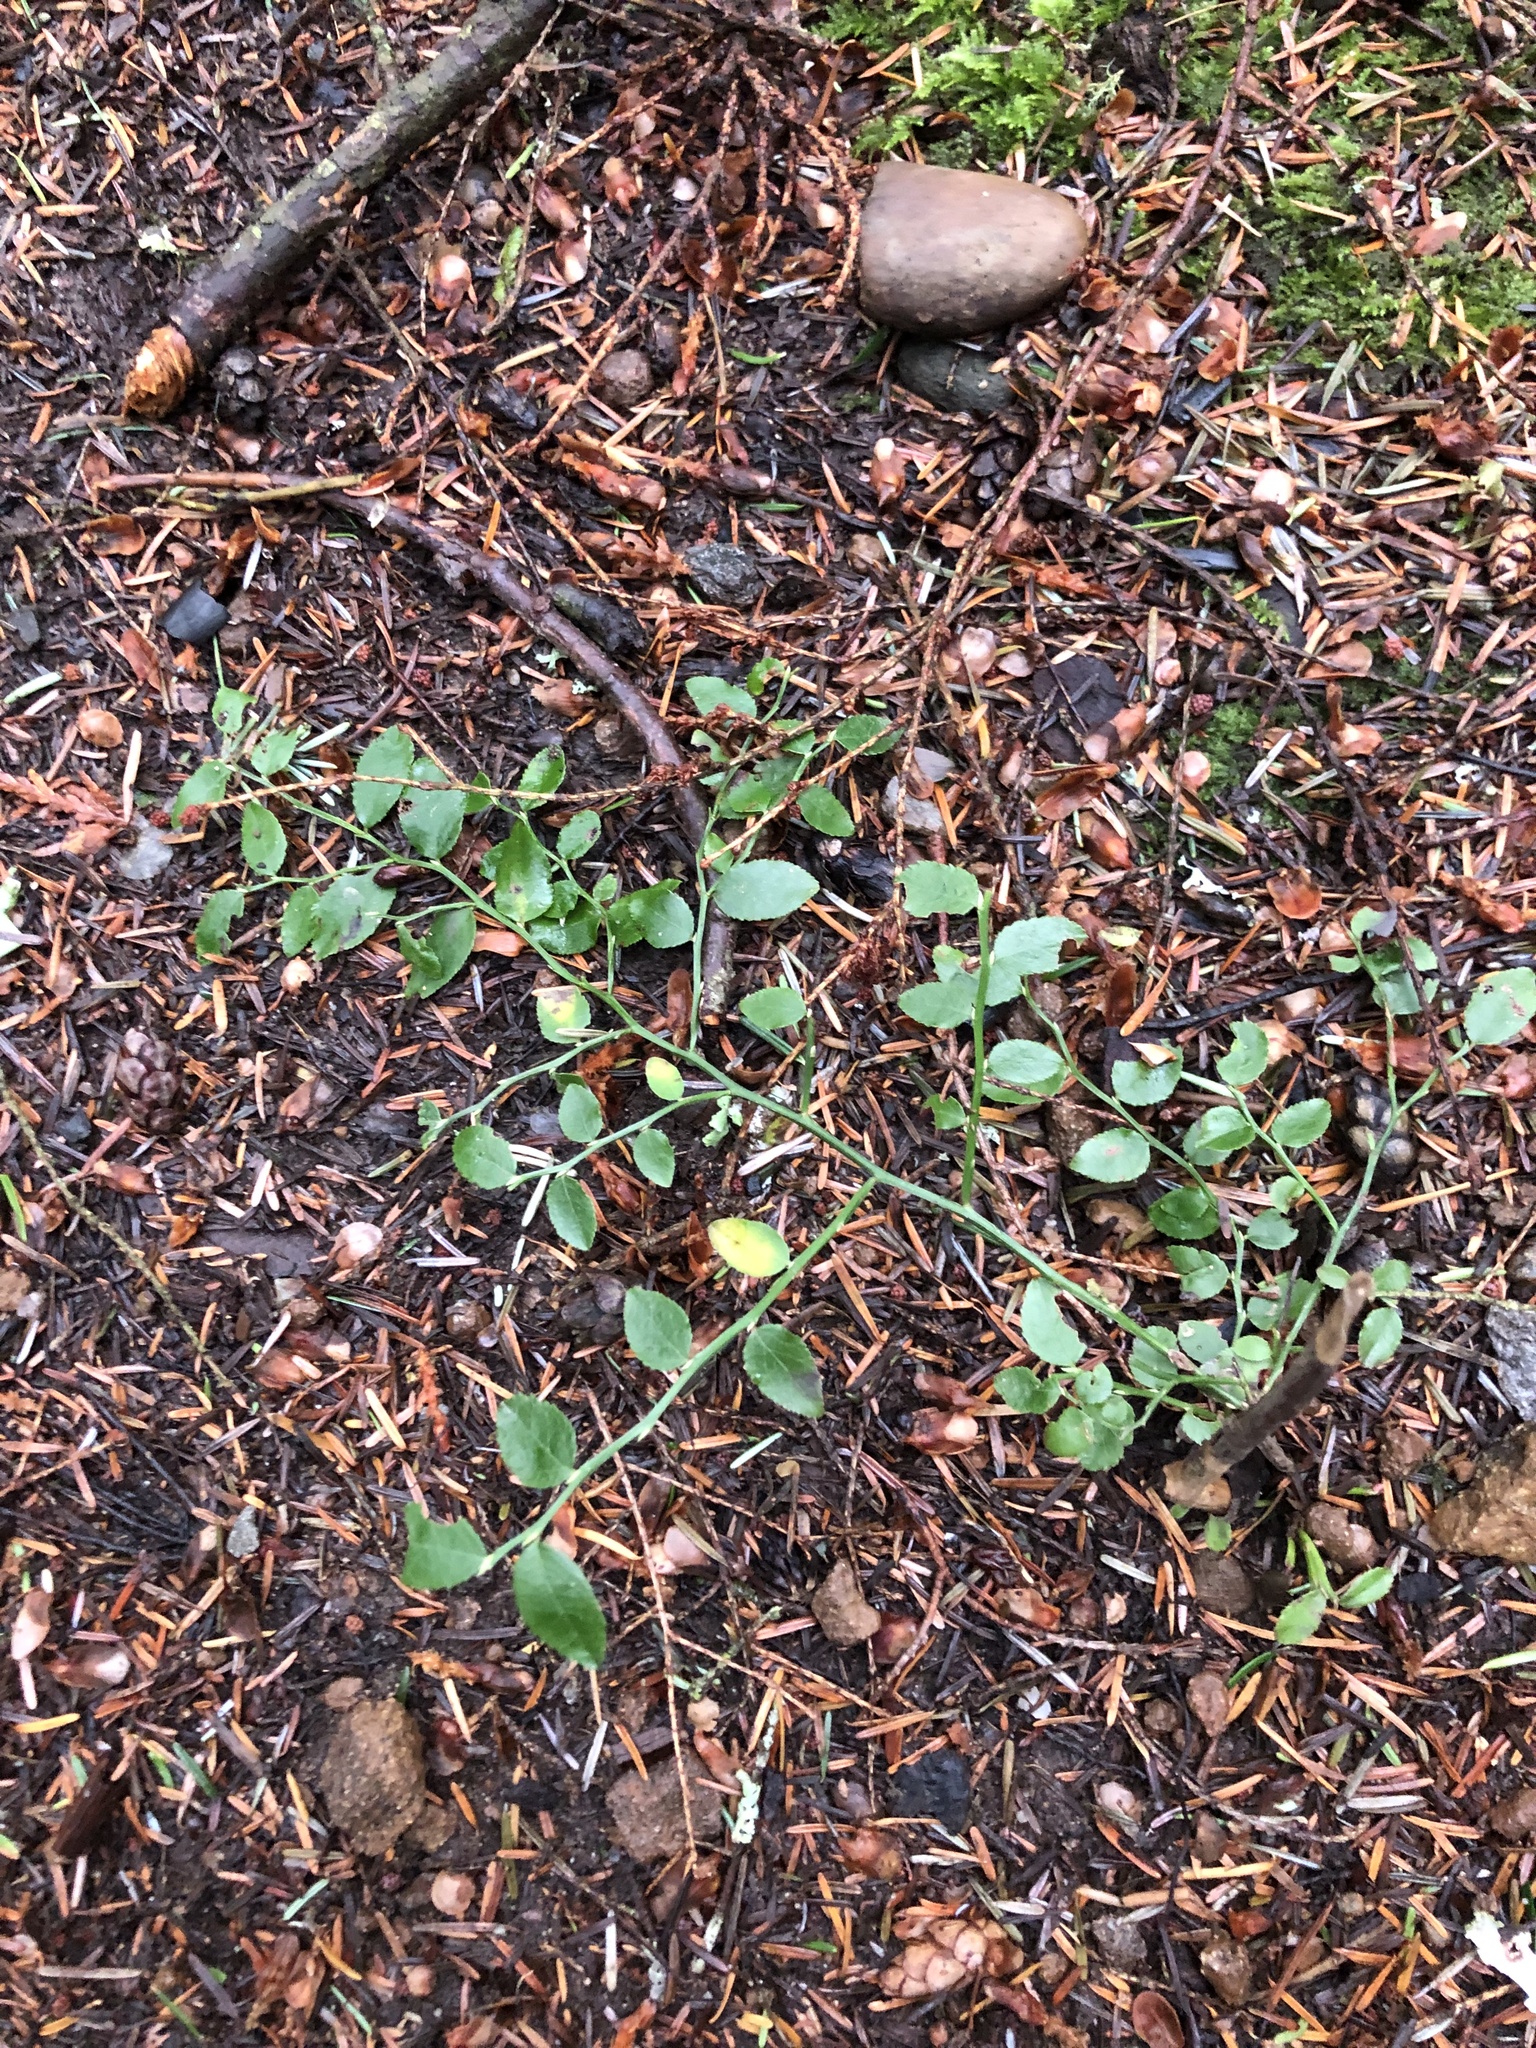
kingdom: Plantae
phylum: Tracheophyta
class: Magnoliopsida
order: Dipsacales
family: Caprifoliaceae
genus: Linnaea
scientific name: Linnaea borealis
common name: Twinflower
